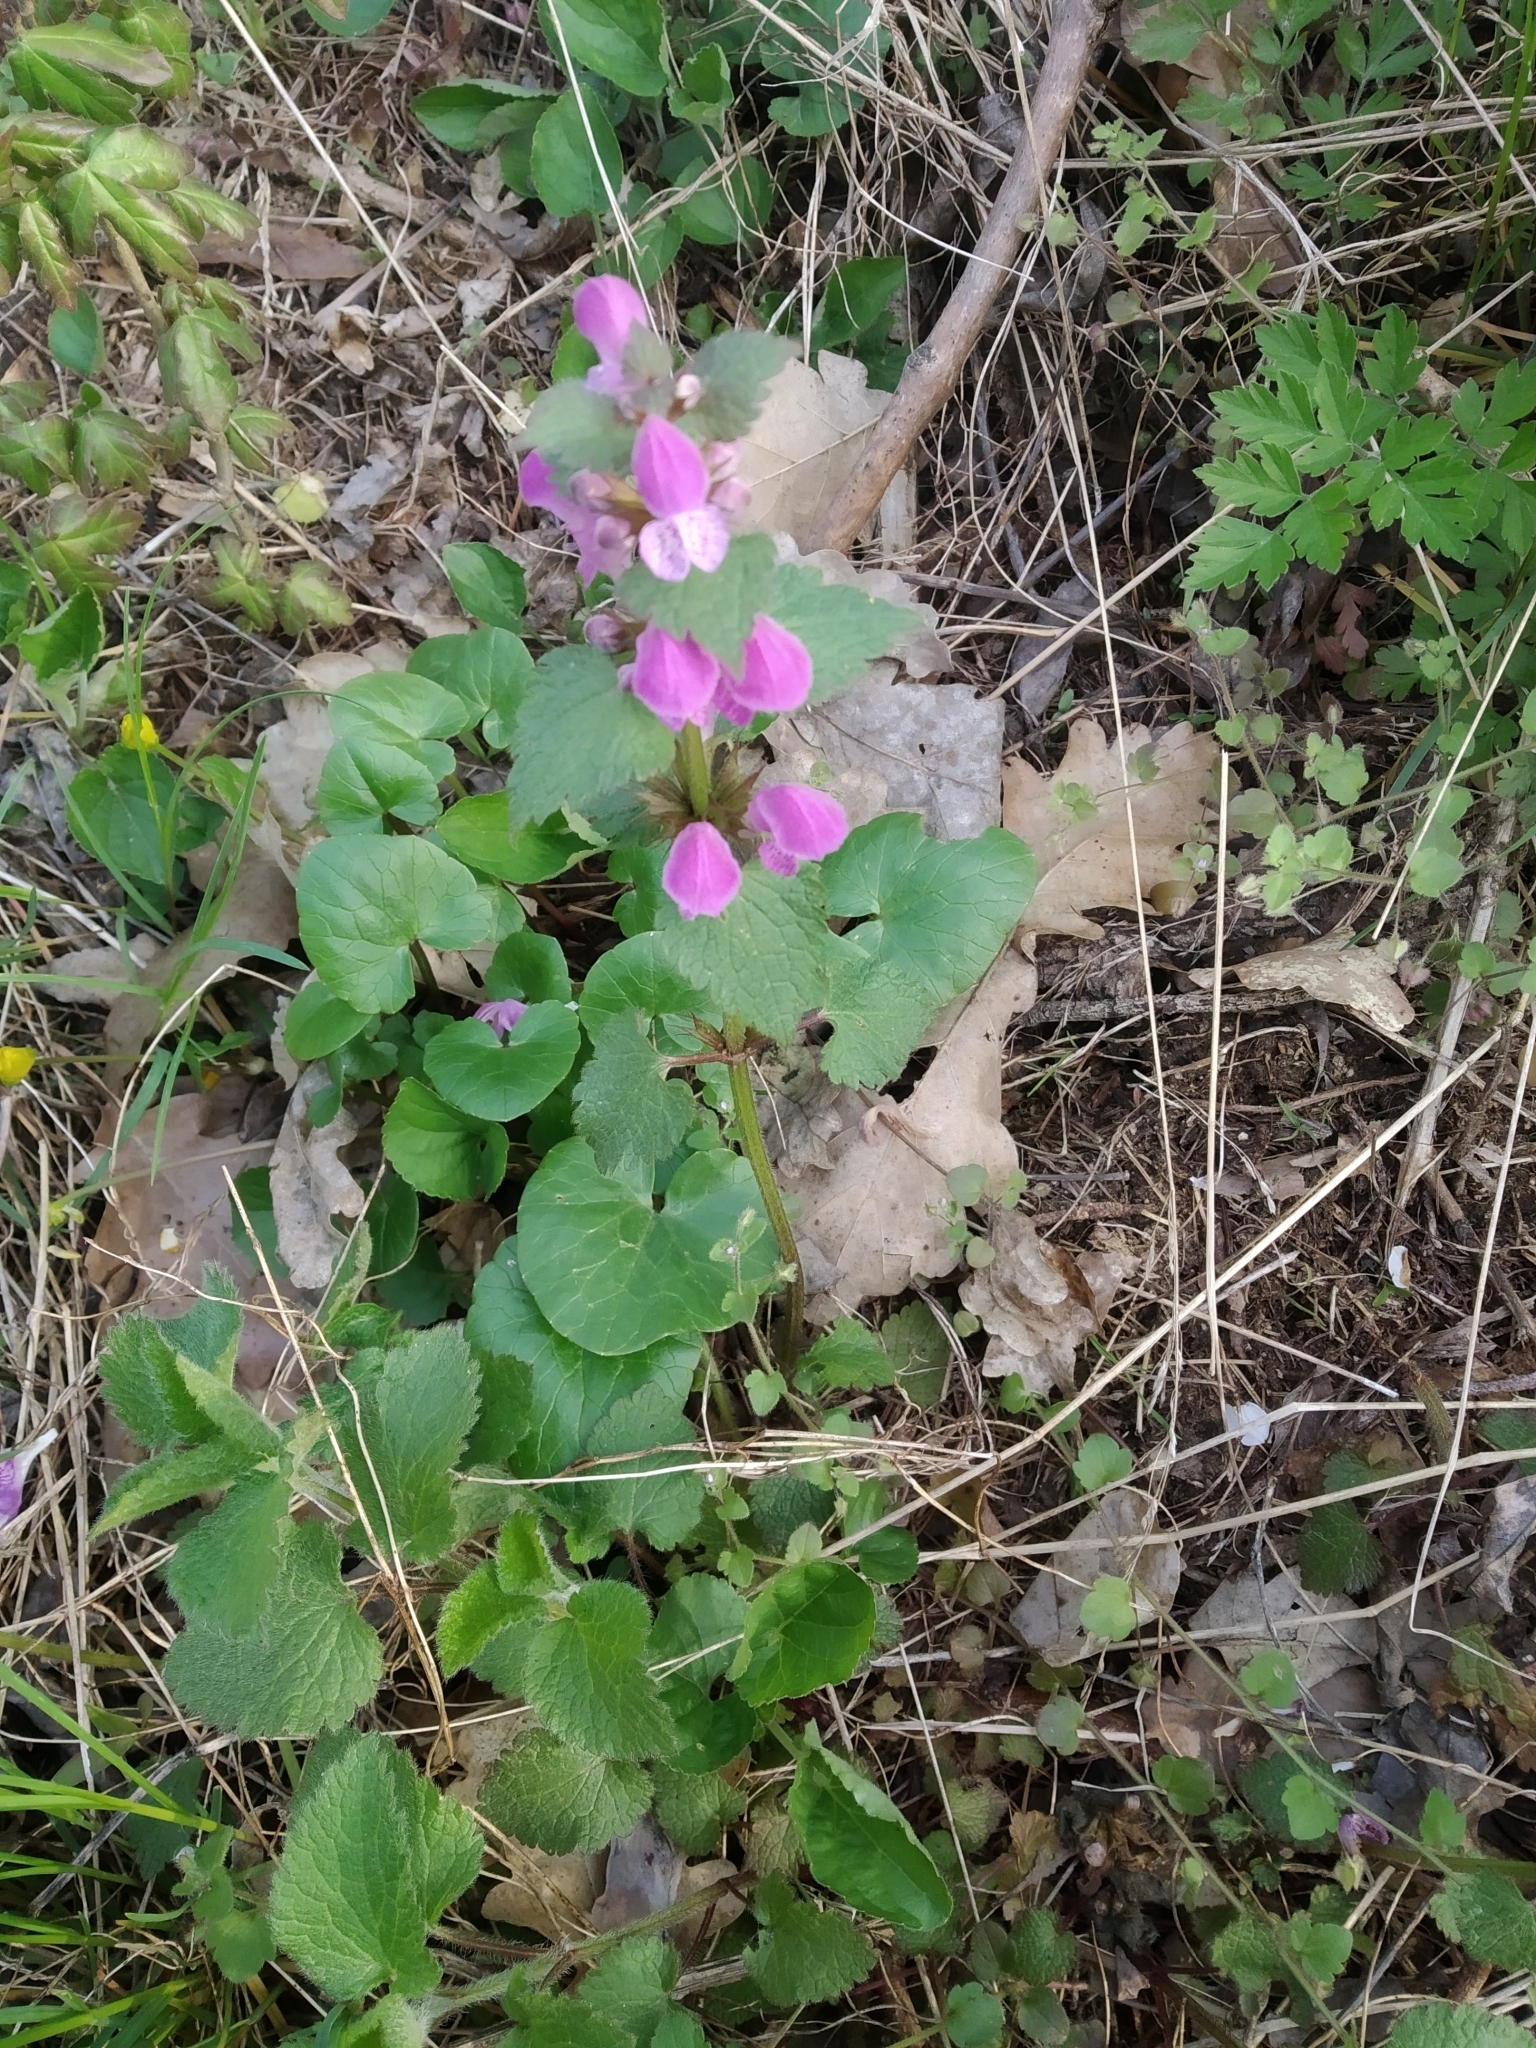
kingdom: Plantae
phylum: Tracheophyta
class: Magnoliopsida
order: Lamiales
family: Lamiaceae
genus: Lamium
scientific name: Lamium maculatum
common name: Spotted dead-nettle
